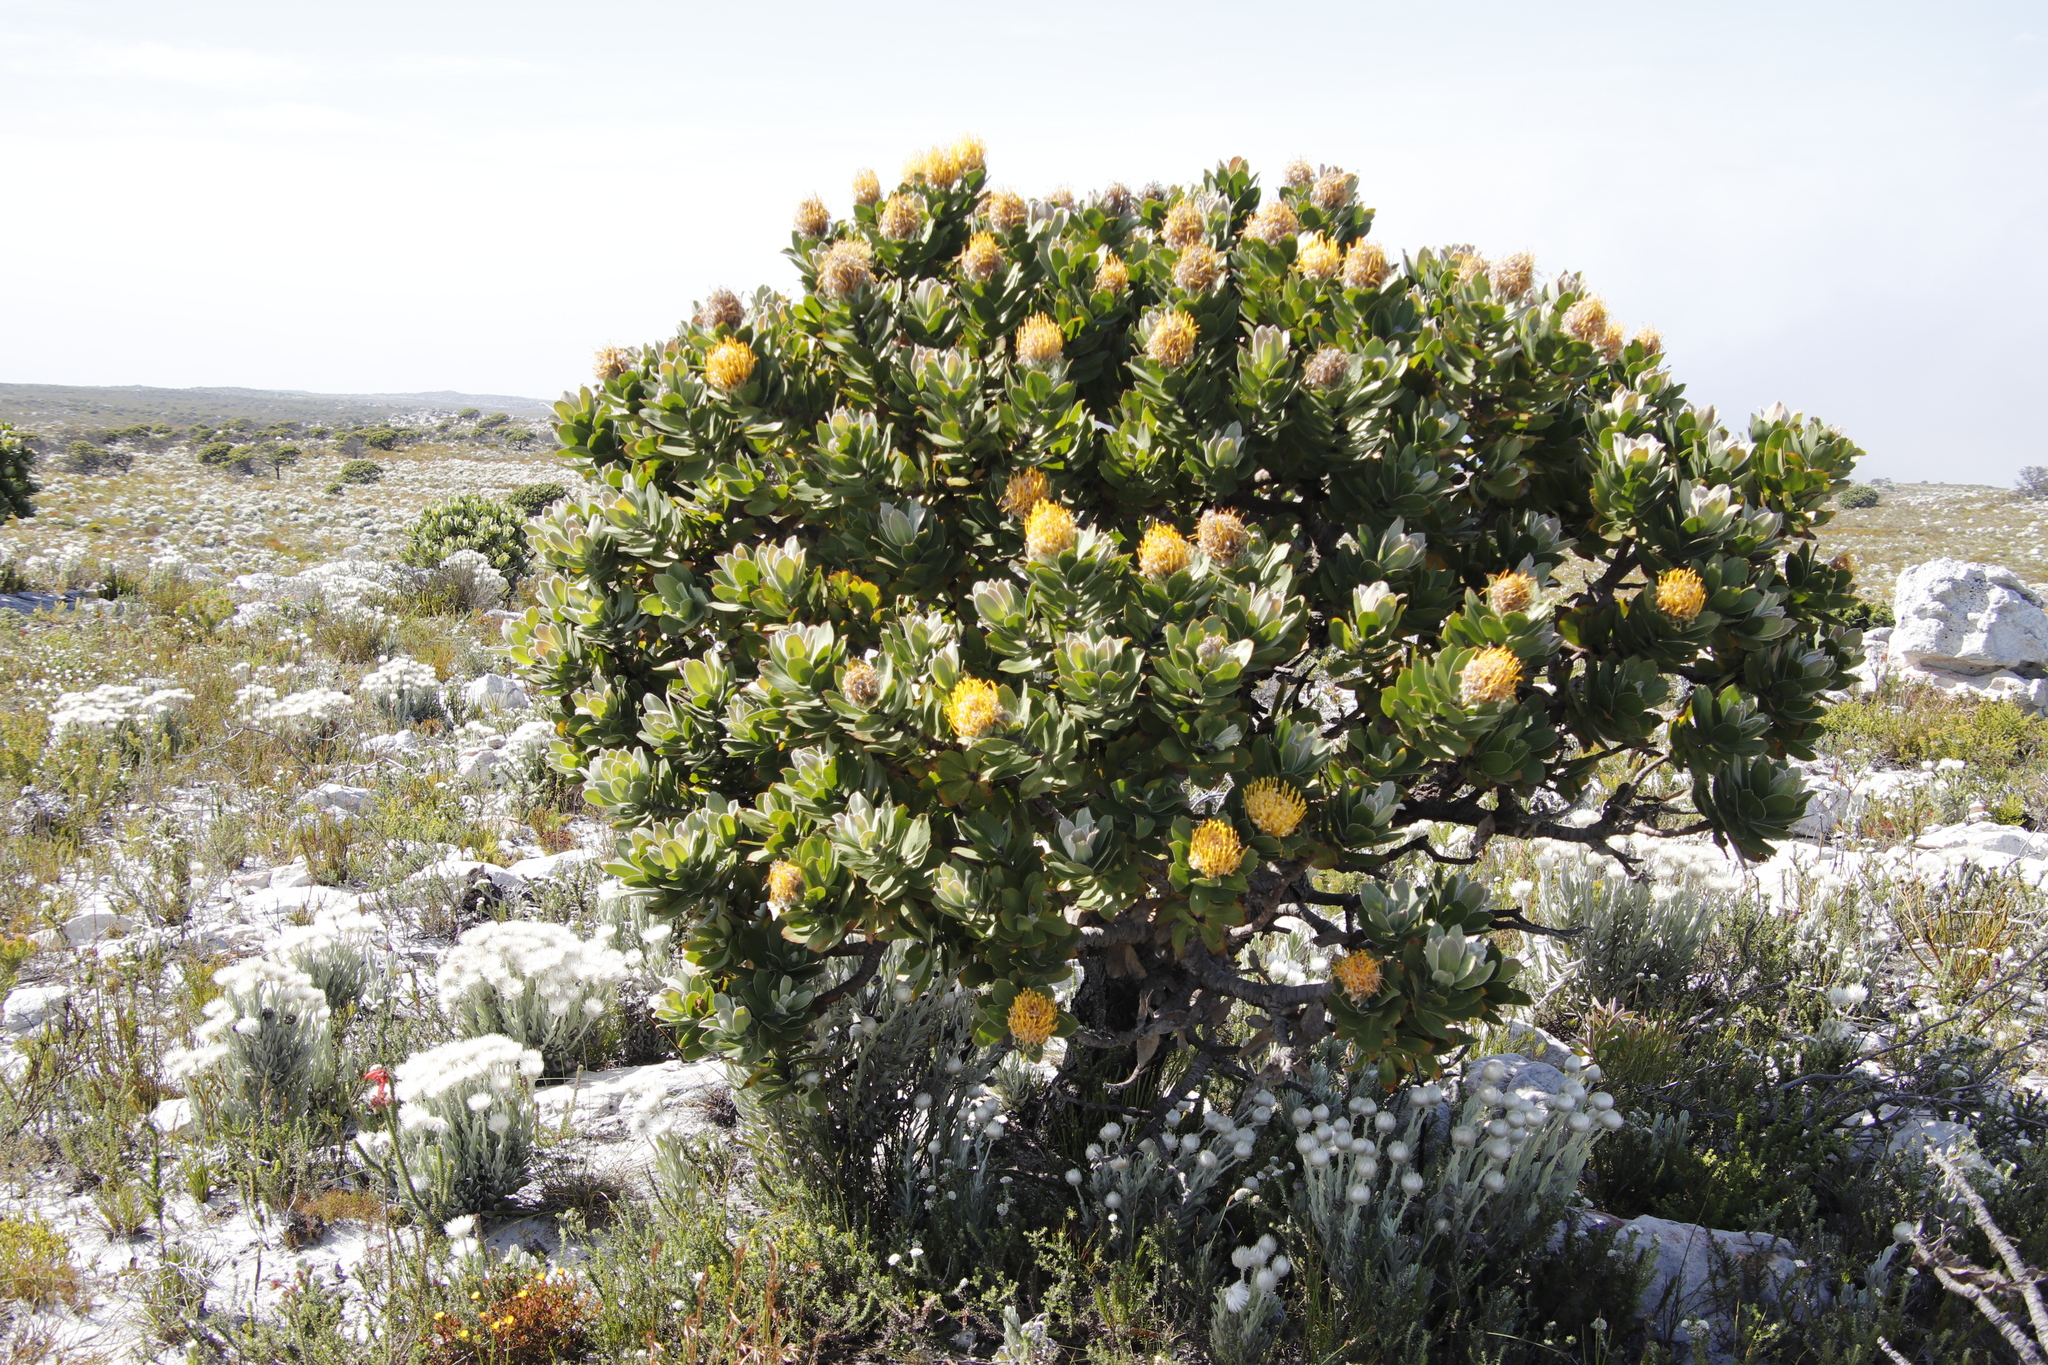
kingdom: Plantae
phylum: Tracheophyta
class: Magnoliopsida
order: Proteales
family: Proteaceae
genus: Leucospermum
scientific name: Leucospermum conocarpodendron
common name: Tree pincushion
